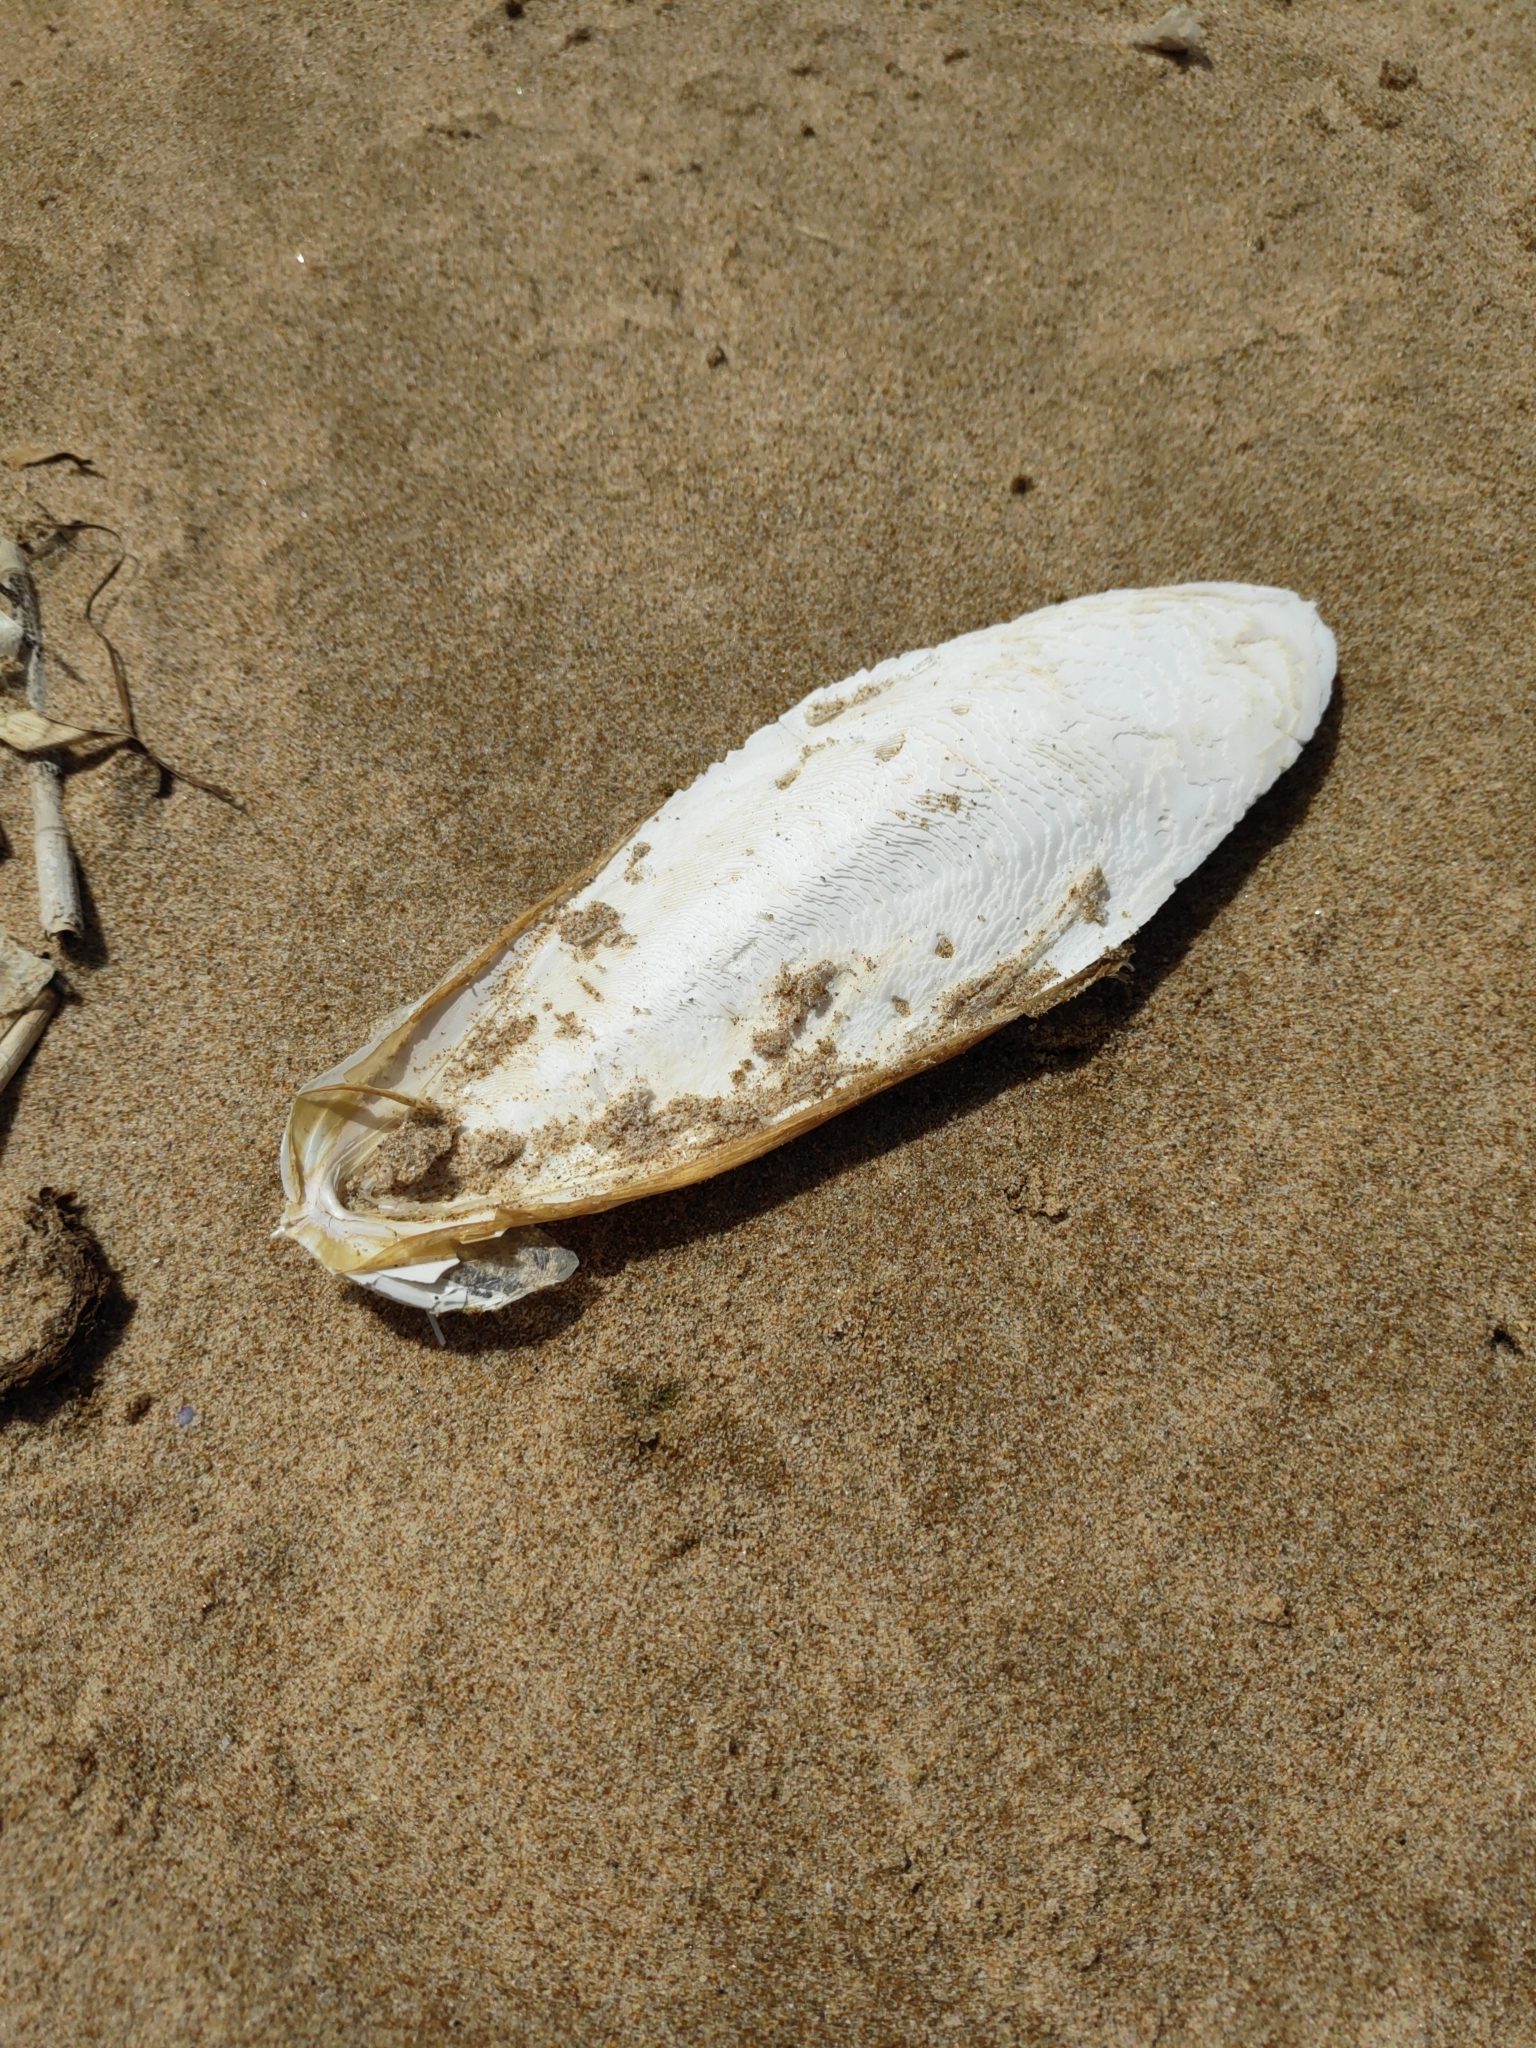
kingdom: Animalia
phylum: Mollusca
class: Cephalopoda
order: Sepiida
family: Sepiidae
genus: Sepia
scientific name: Sepia officinalis
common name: Common cuttlefish
